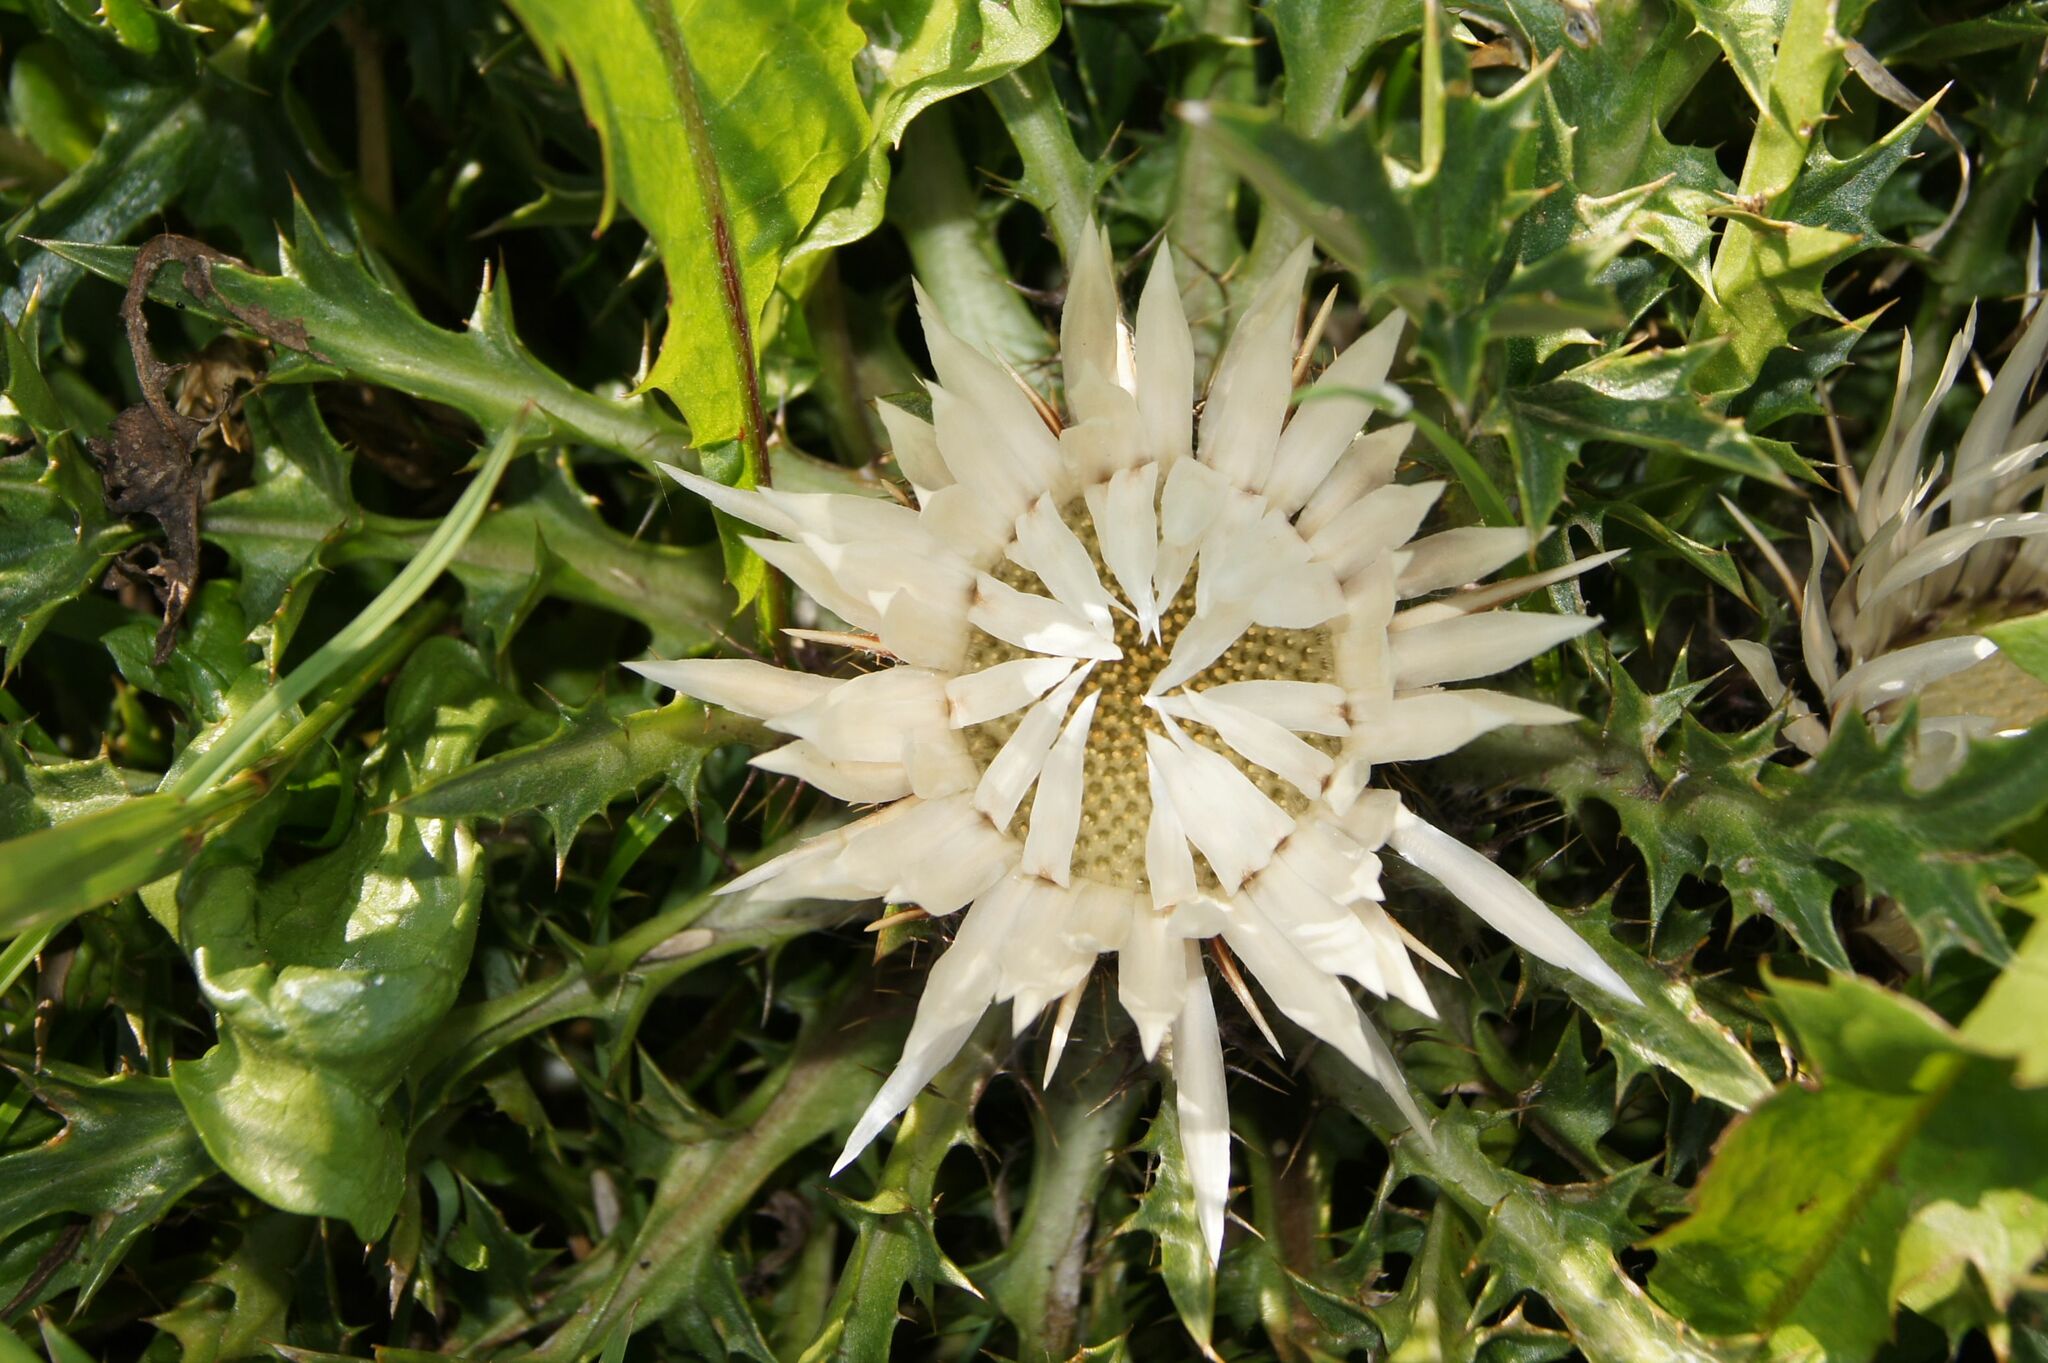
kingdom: Plantae
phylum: Tracheophyta
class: Magnoliopsida
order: Asterales
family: Asteraceae
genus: Carlina
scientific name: Carlina acaulis
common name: Stemless carline thistle
